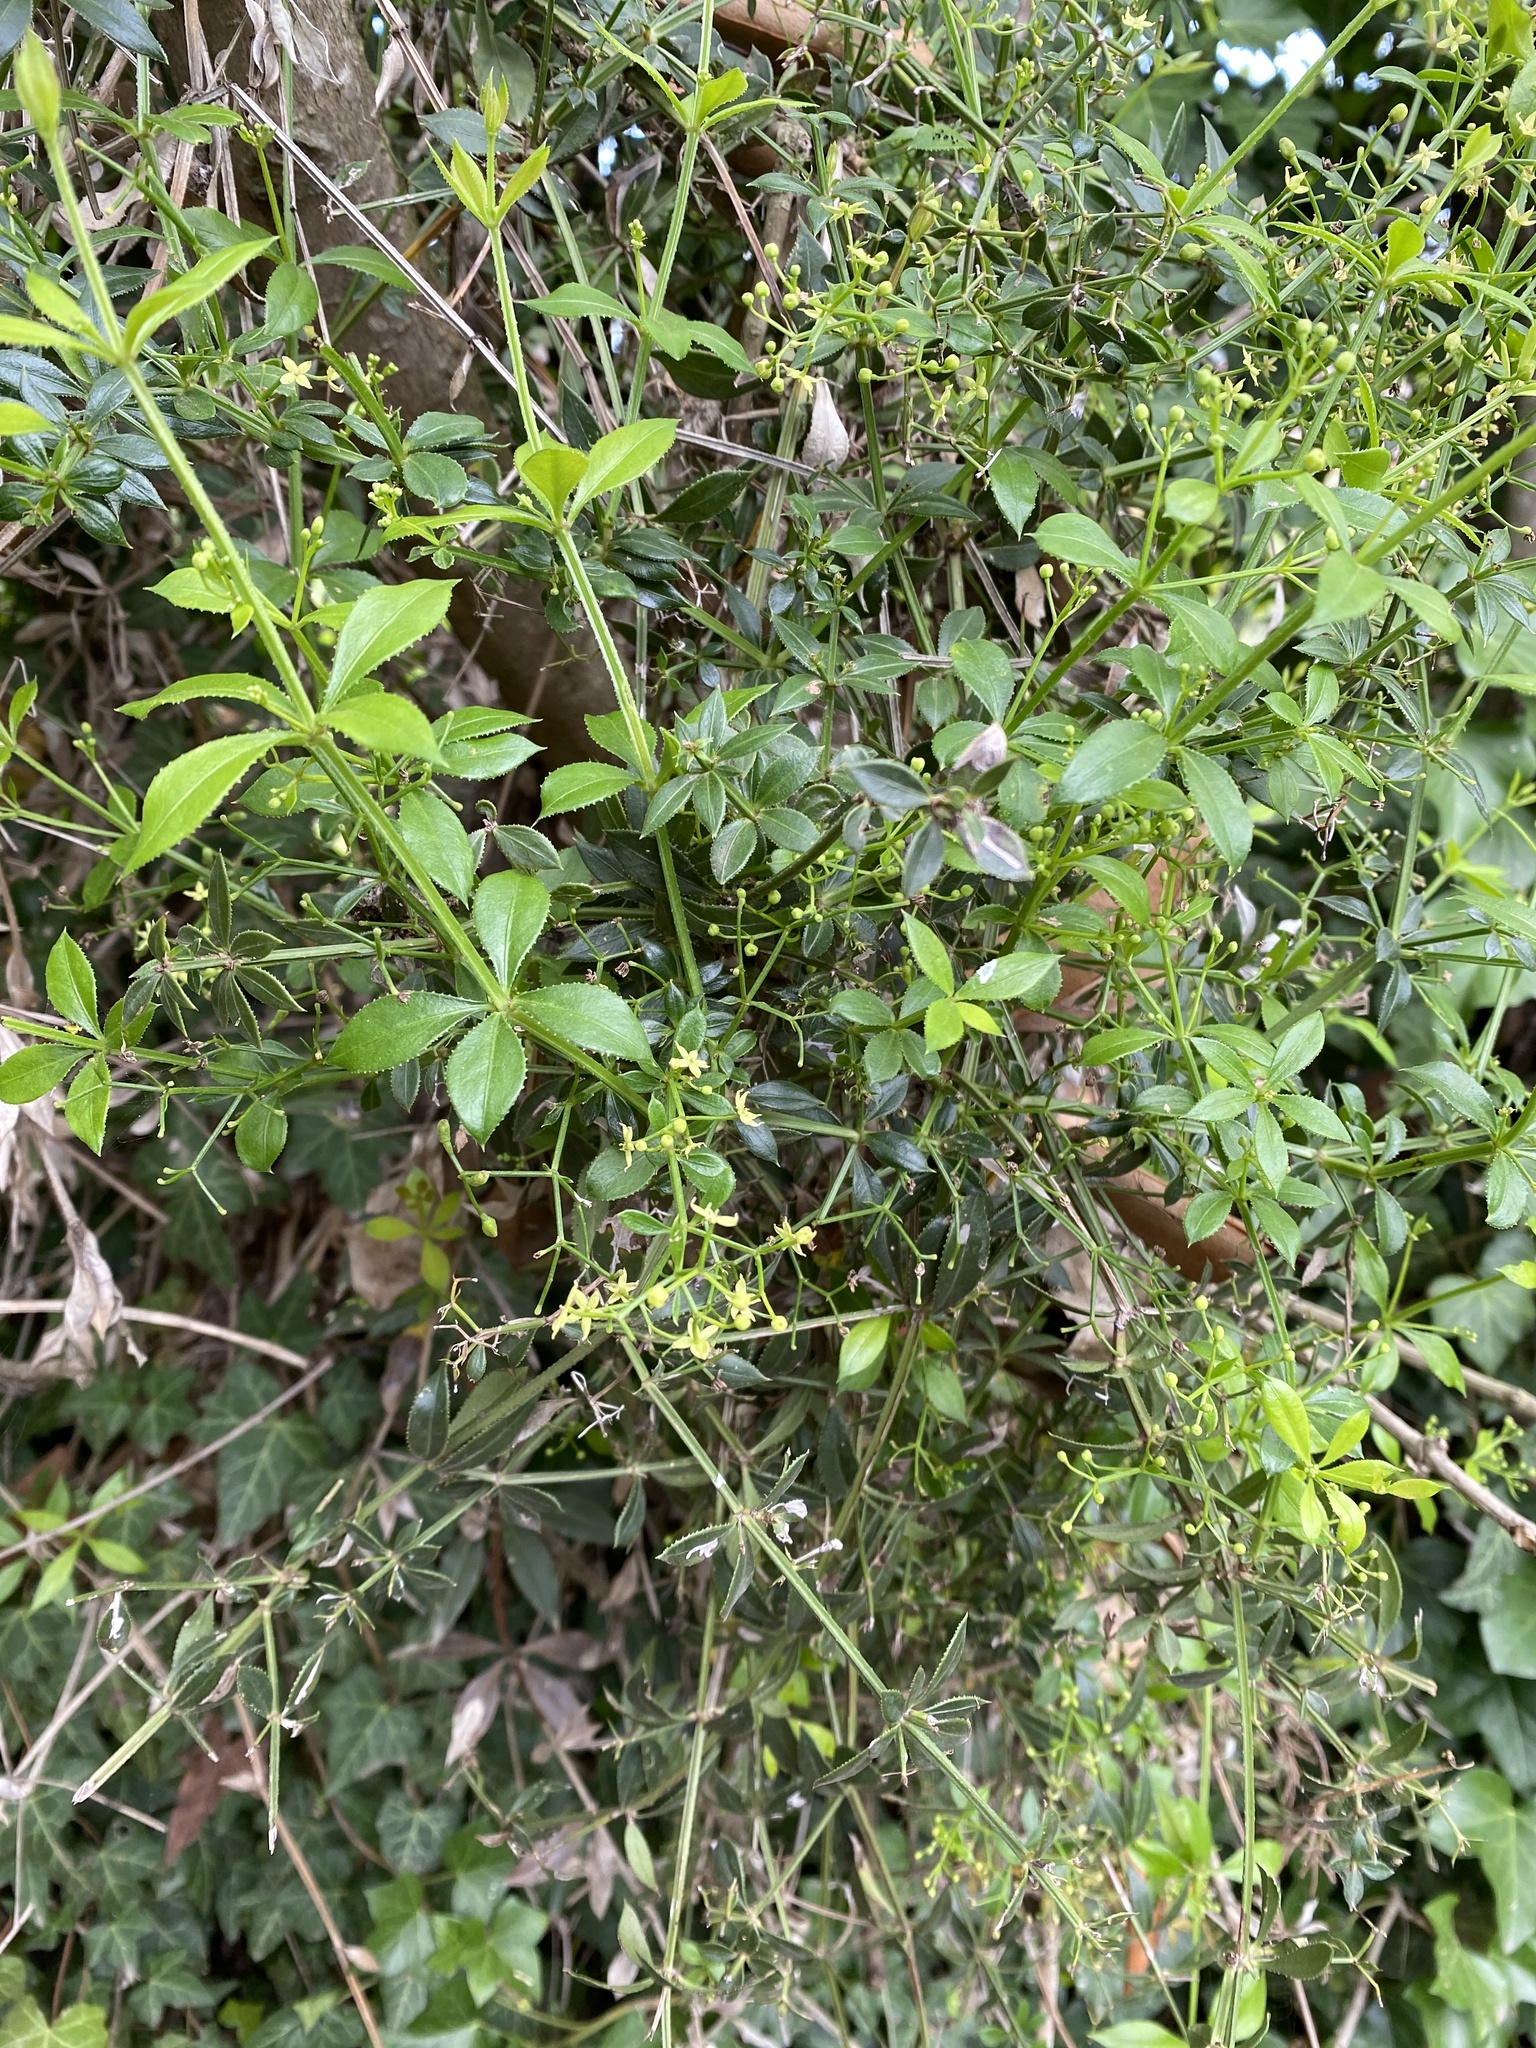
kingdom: Plantae
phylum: Tracheophyta
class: Magnoliopsida
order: Gentianales
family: Rubiaceae
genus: Rubia
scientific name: Rubia peregrina
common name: Wild madder
